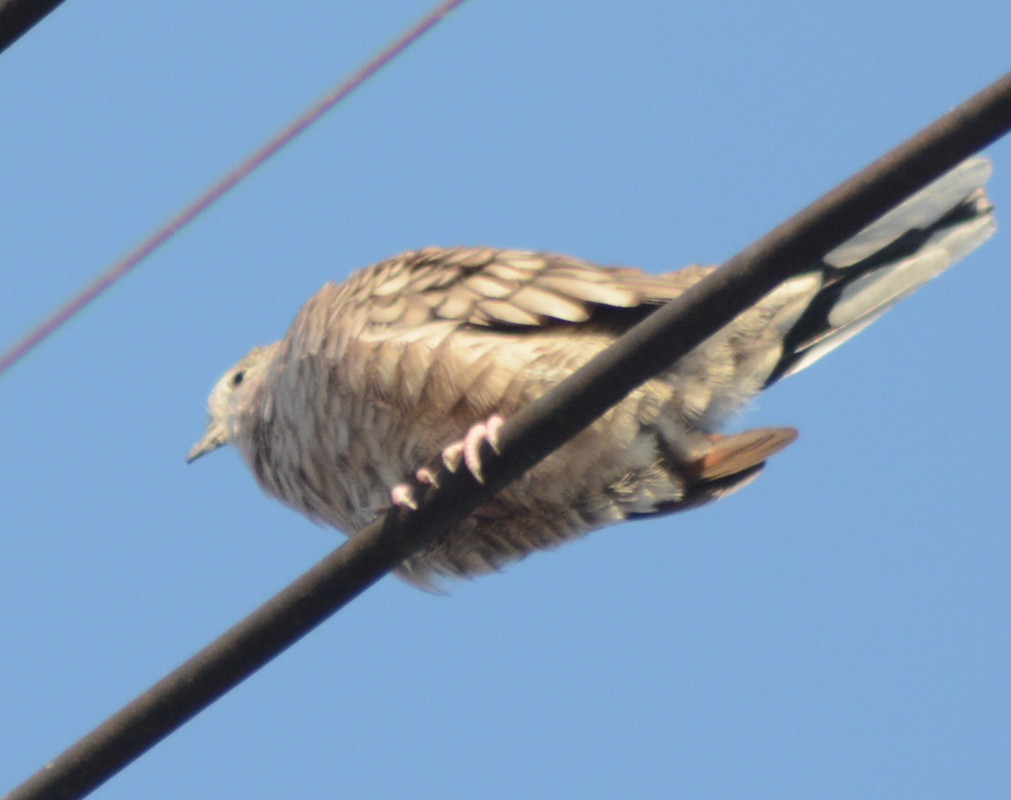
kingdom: Animalia
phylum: Chordata
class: Aves
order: Columbiformes
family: Columbidae
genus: Columbina
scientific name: Columbina inca
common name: Inca dove
